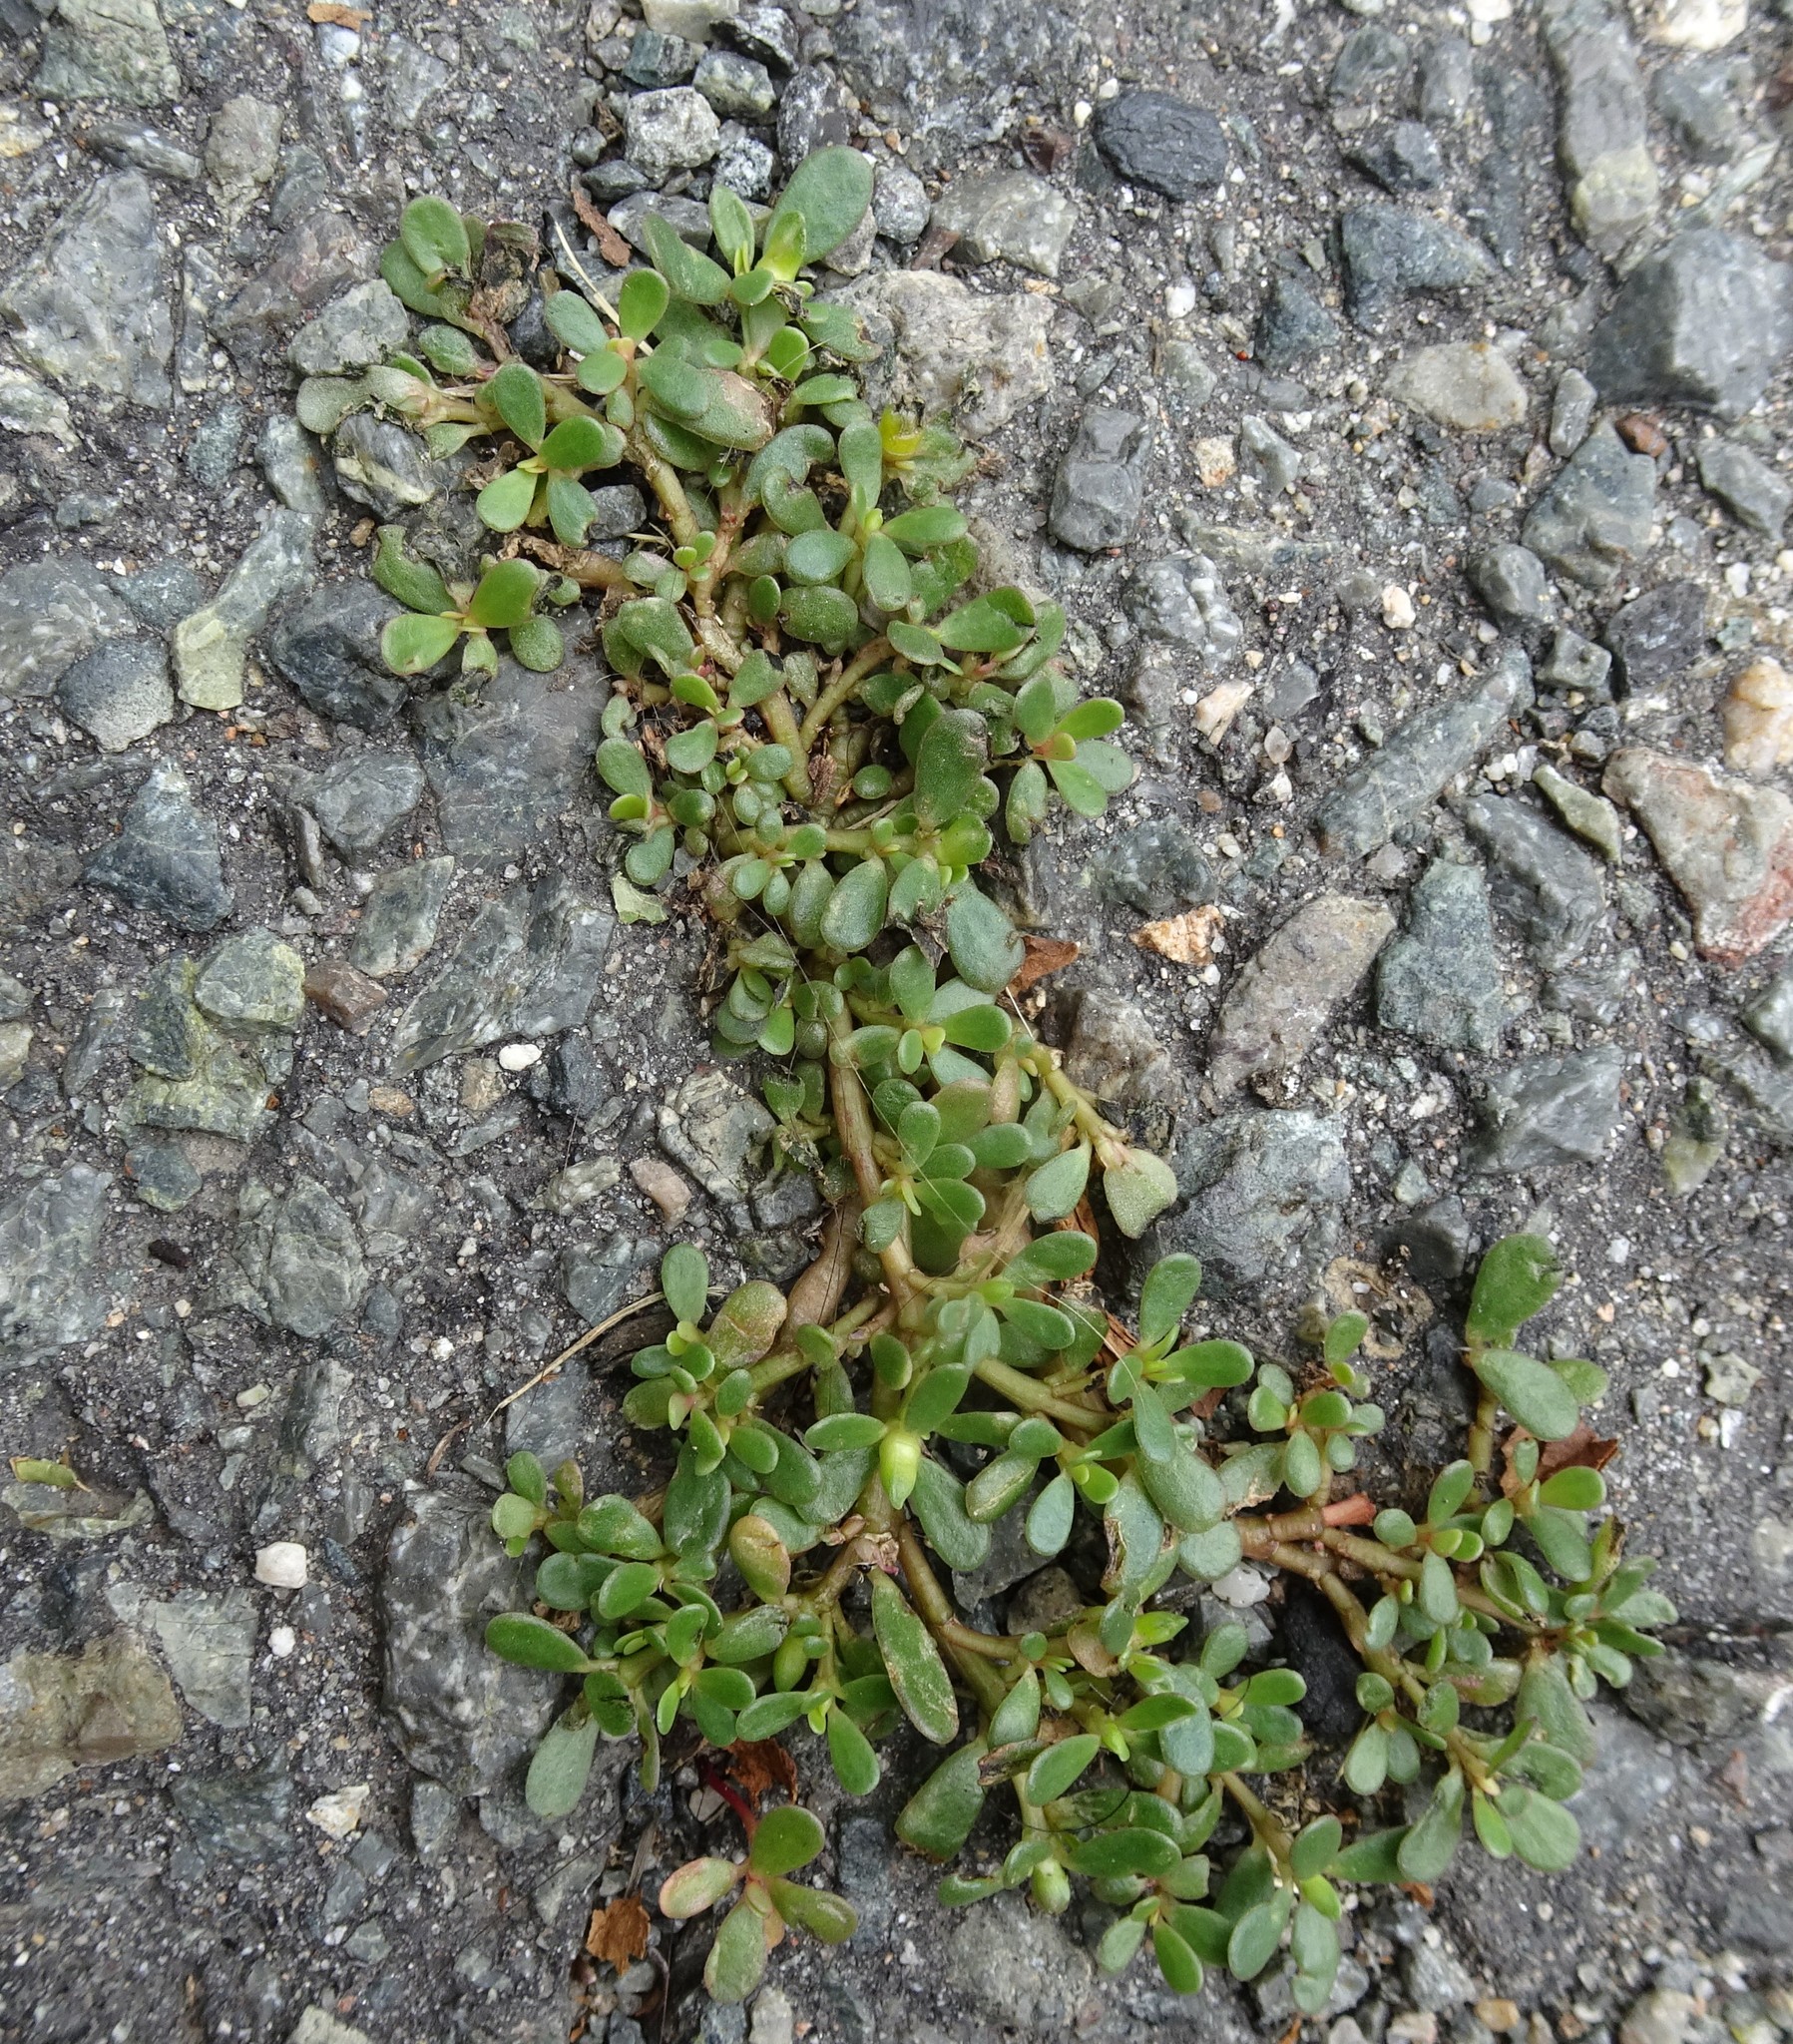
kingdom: Plantae
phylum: Tracheophyta
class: Magnoliopsida
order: Caryophyllales
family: Portulacaceae
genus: Portulaca
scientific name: Portulaca oleracea
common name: Common purslane
